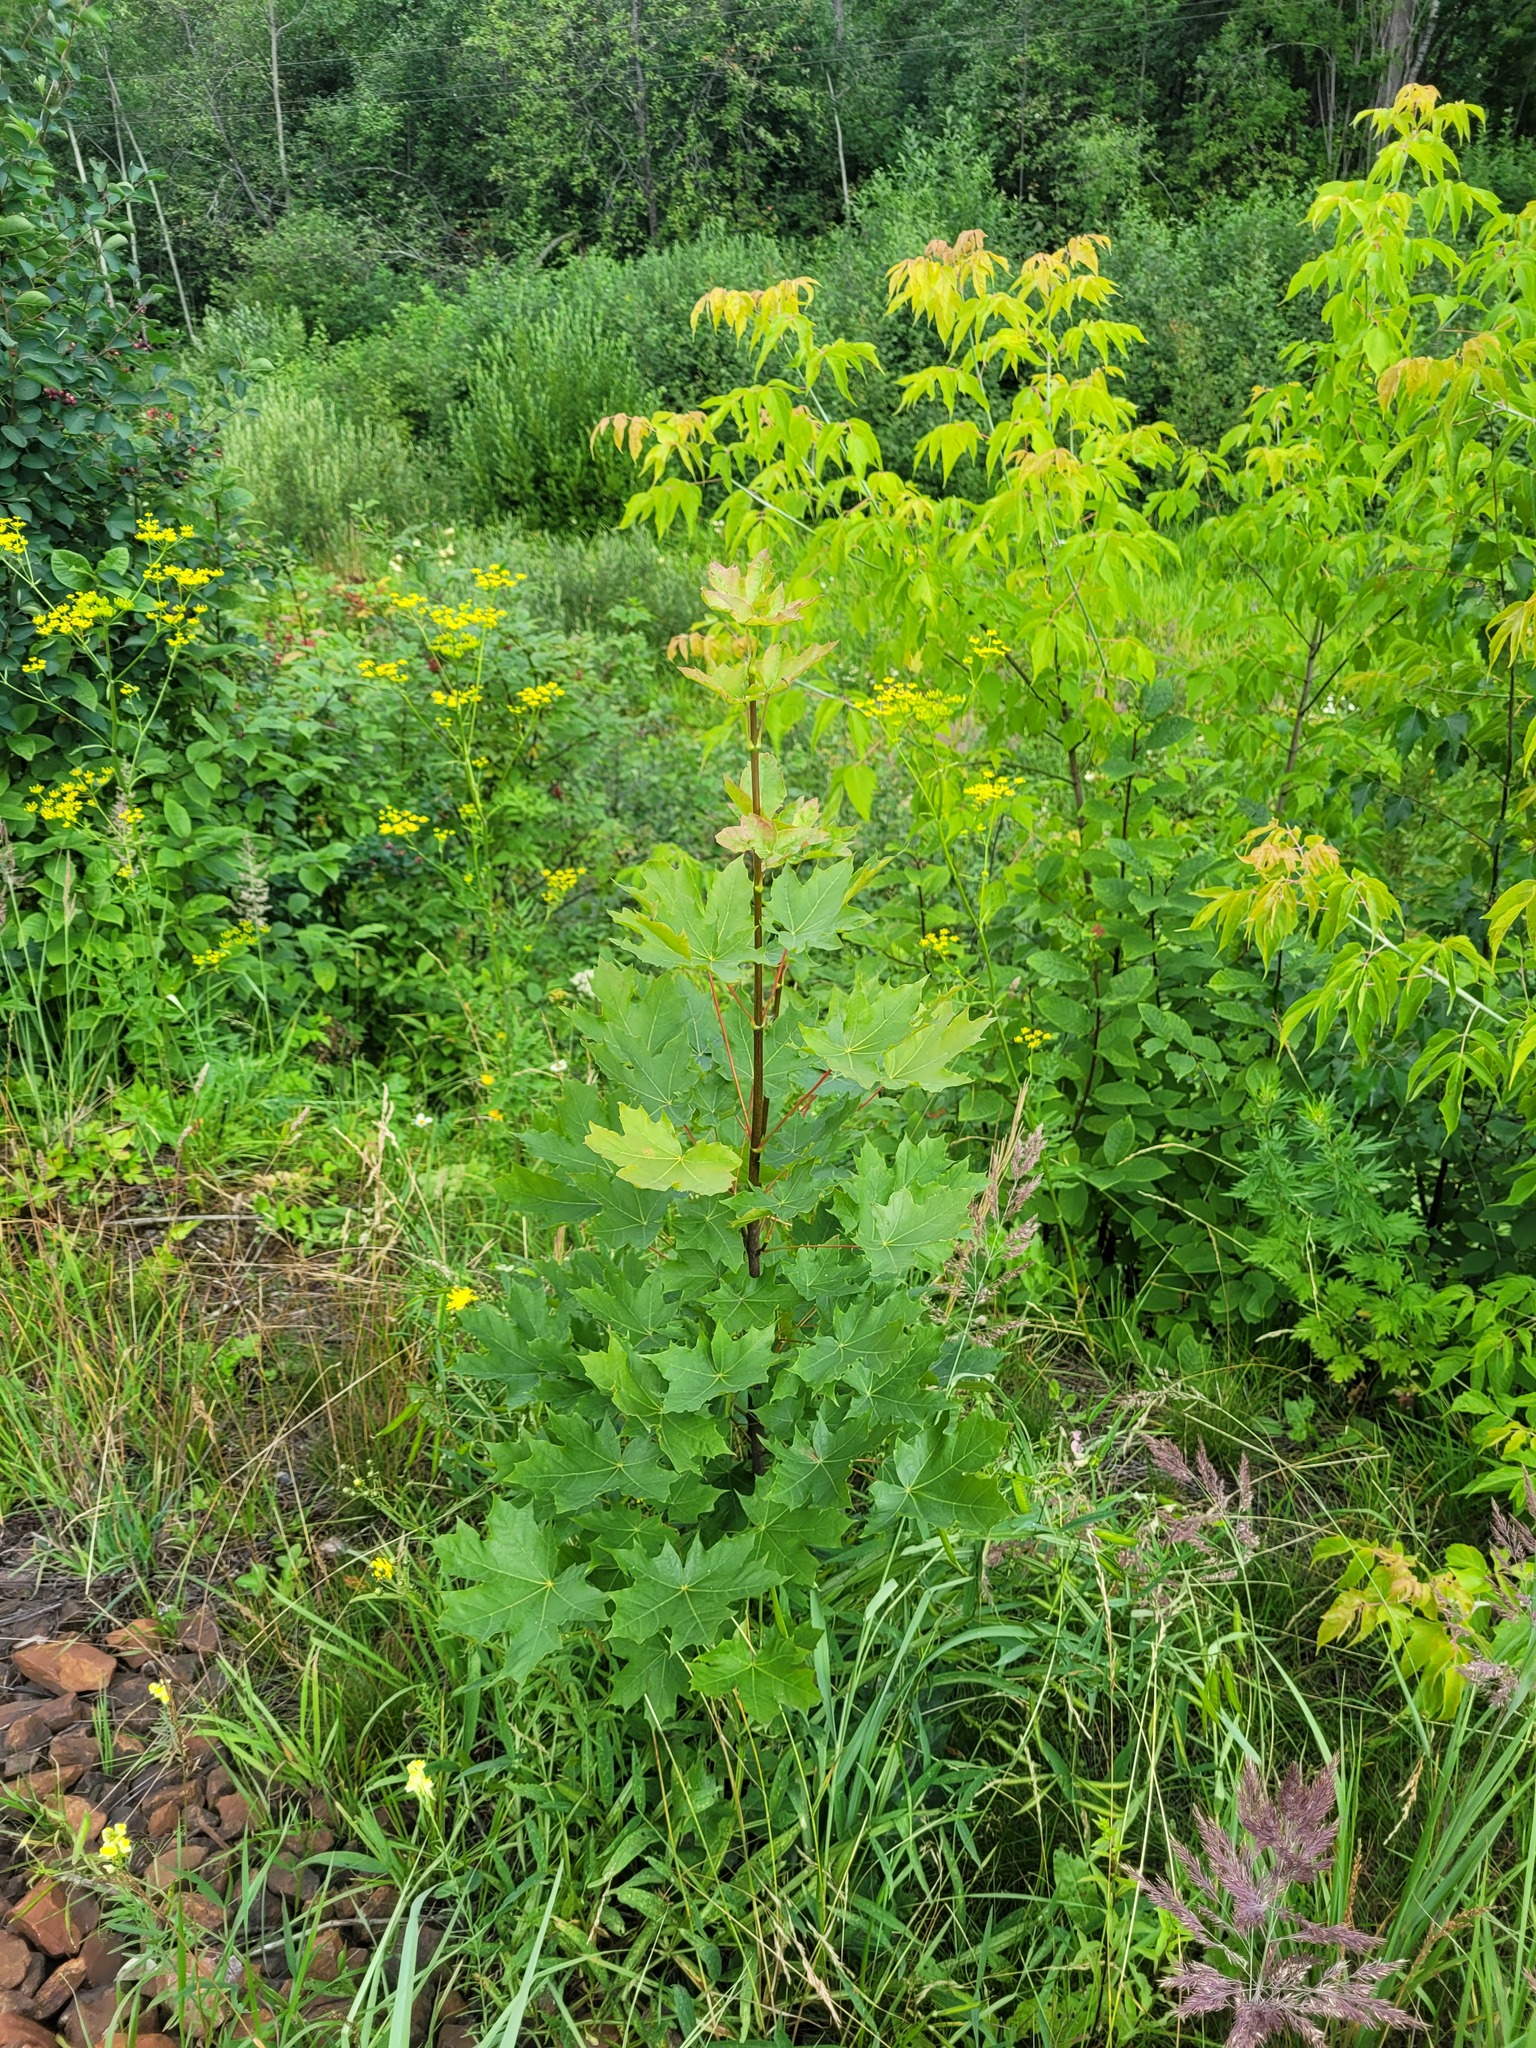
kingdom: Plantae
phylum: Tracheophyta
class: Magnoliopsida
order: Sapindales
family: Sapindaceae
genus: Acer
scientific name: Acer platanoides
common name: Norway maple
